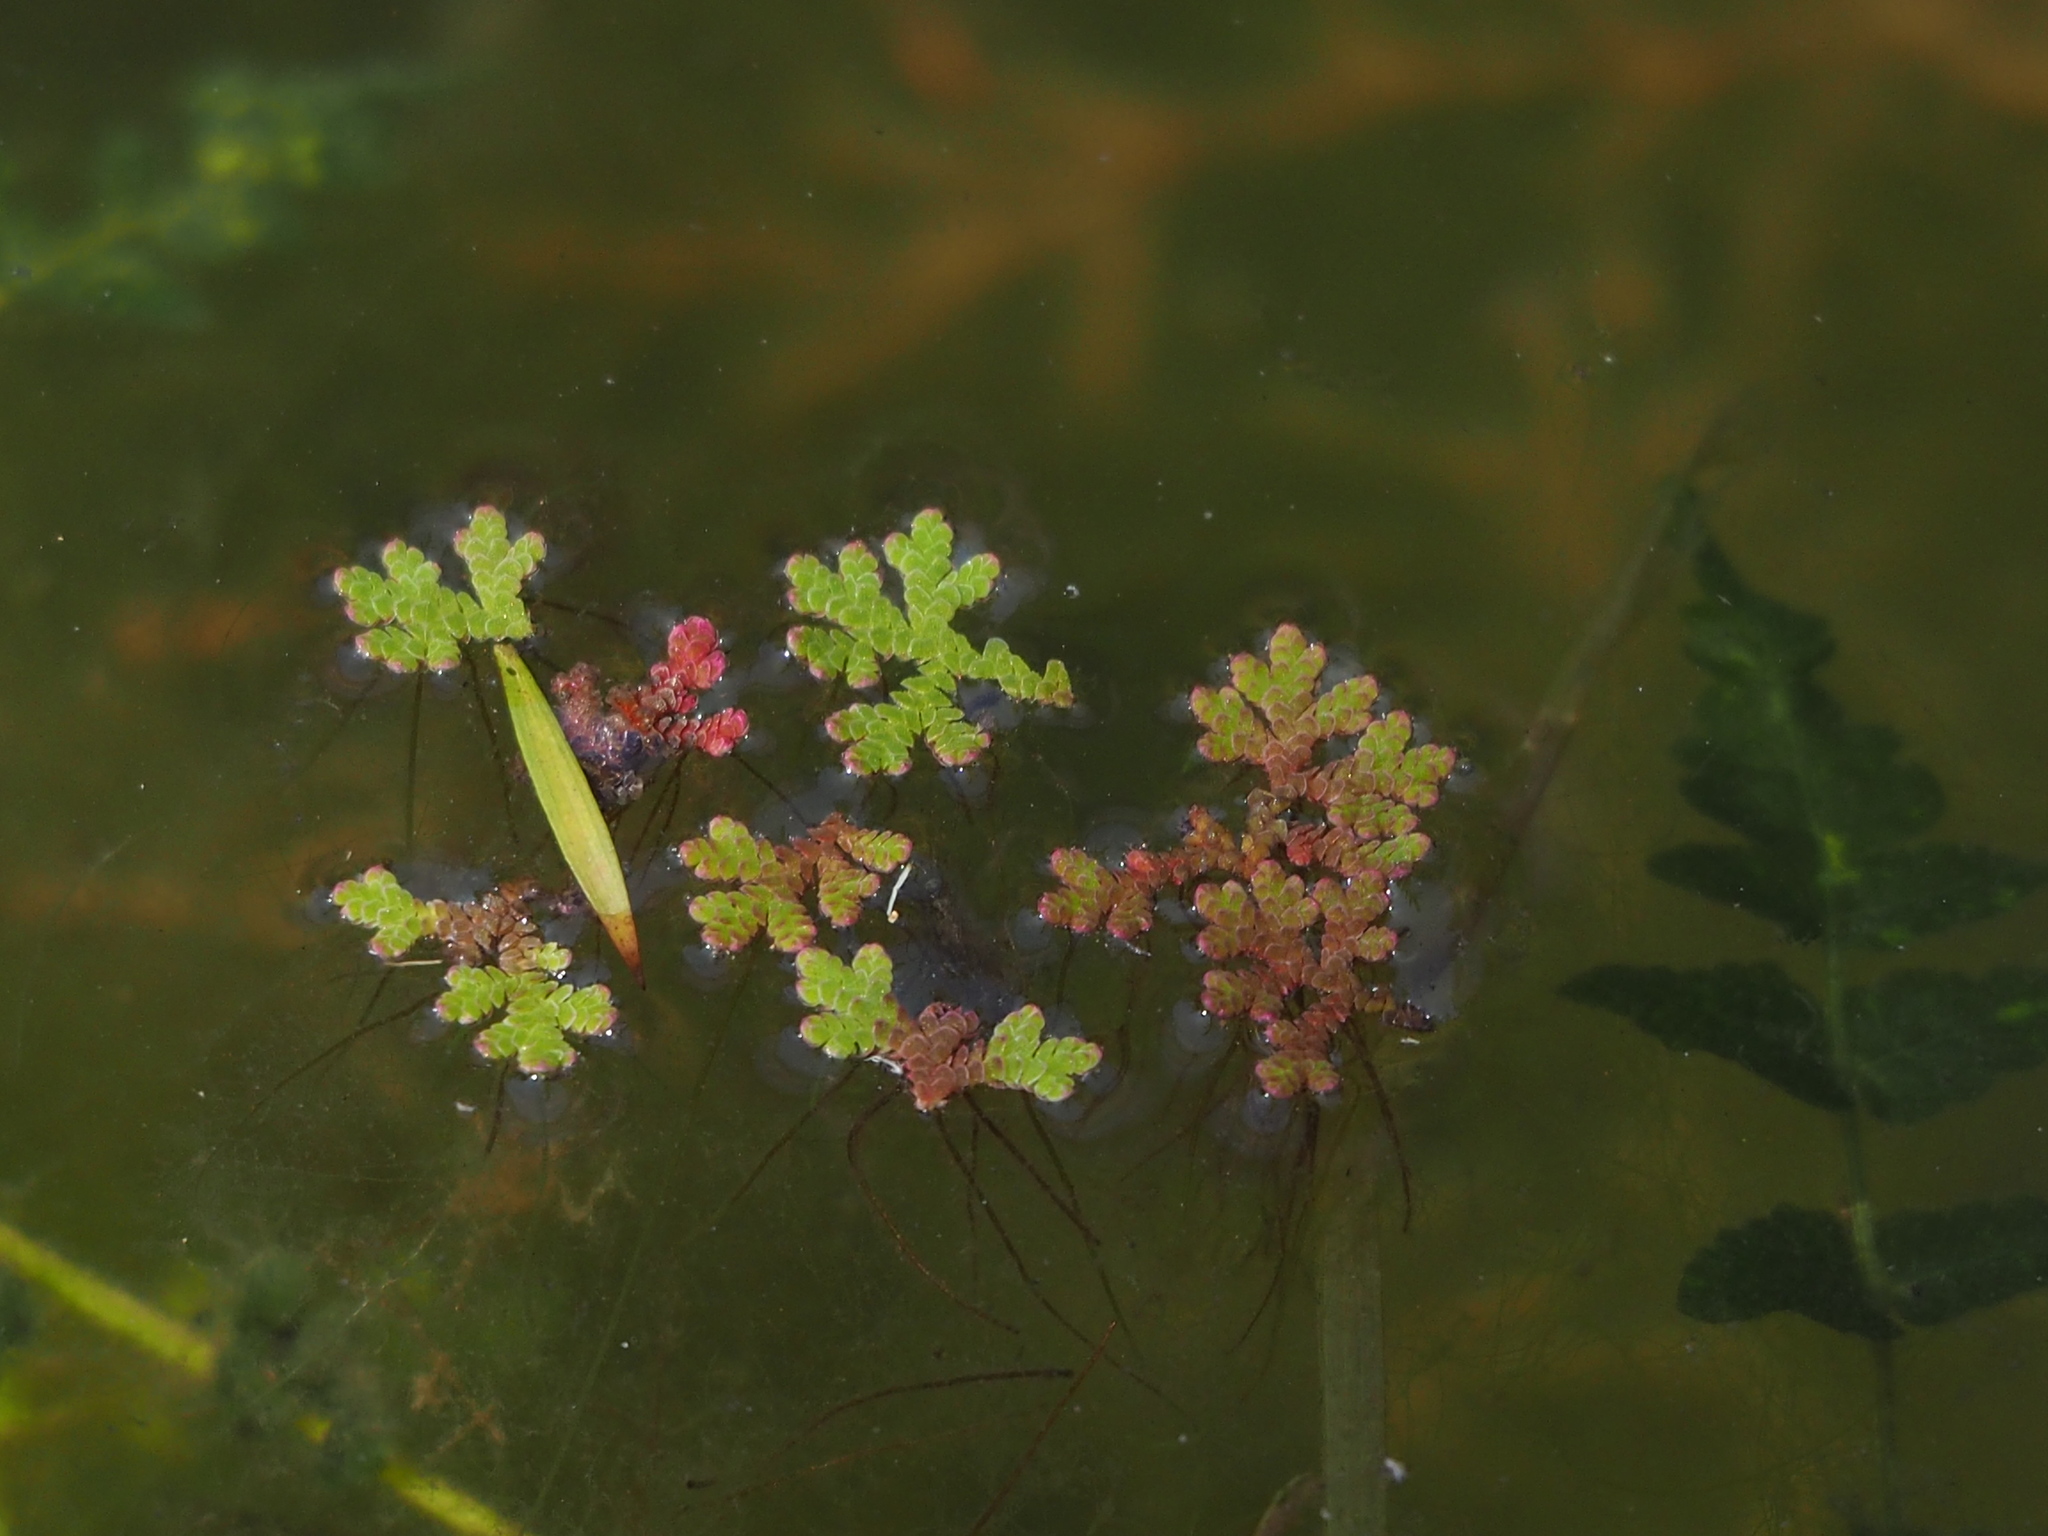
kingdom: Plantae
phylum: Tracheophyta
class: Polypodiopsida
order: Salviniales
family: Salviniaceae
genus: Azolla
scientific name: Azolla caroliniana
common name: Carolina mosquitofern
